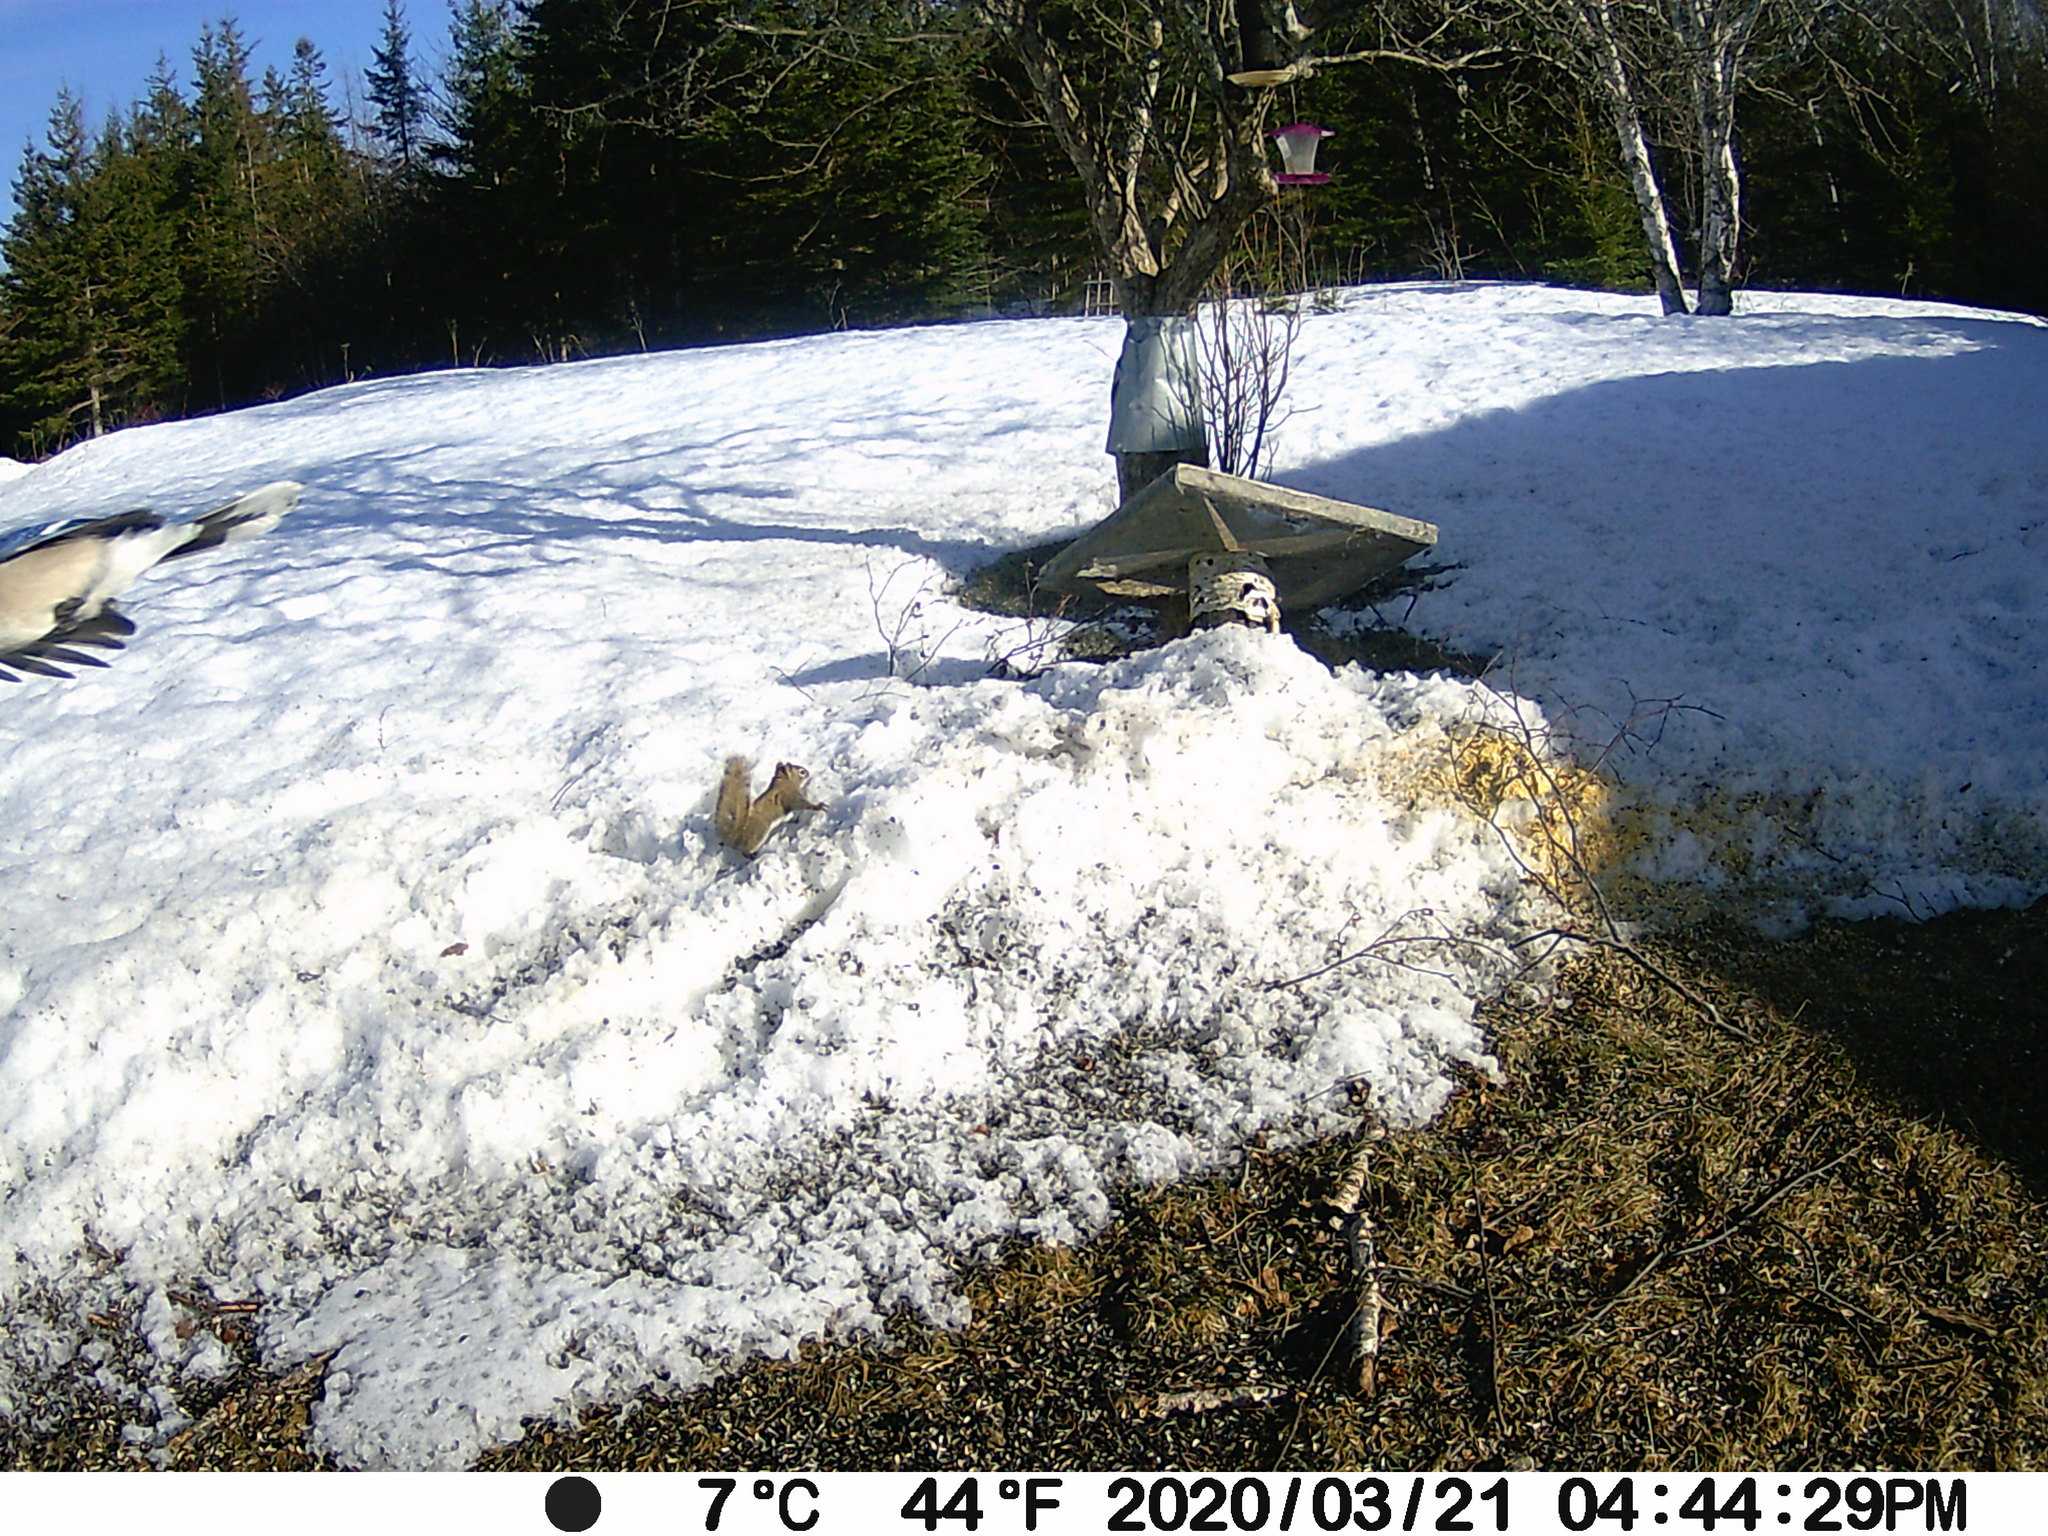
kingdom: Animalia
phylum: Chordata
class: Aves
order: Passeriformes
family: Corvidae
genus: Cyanocitta
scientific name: Cyanocitta cristata
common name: Blue jay
